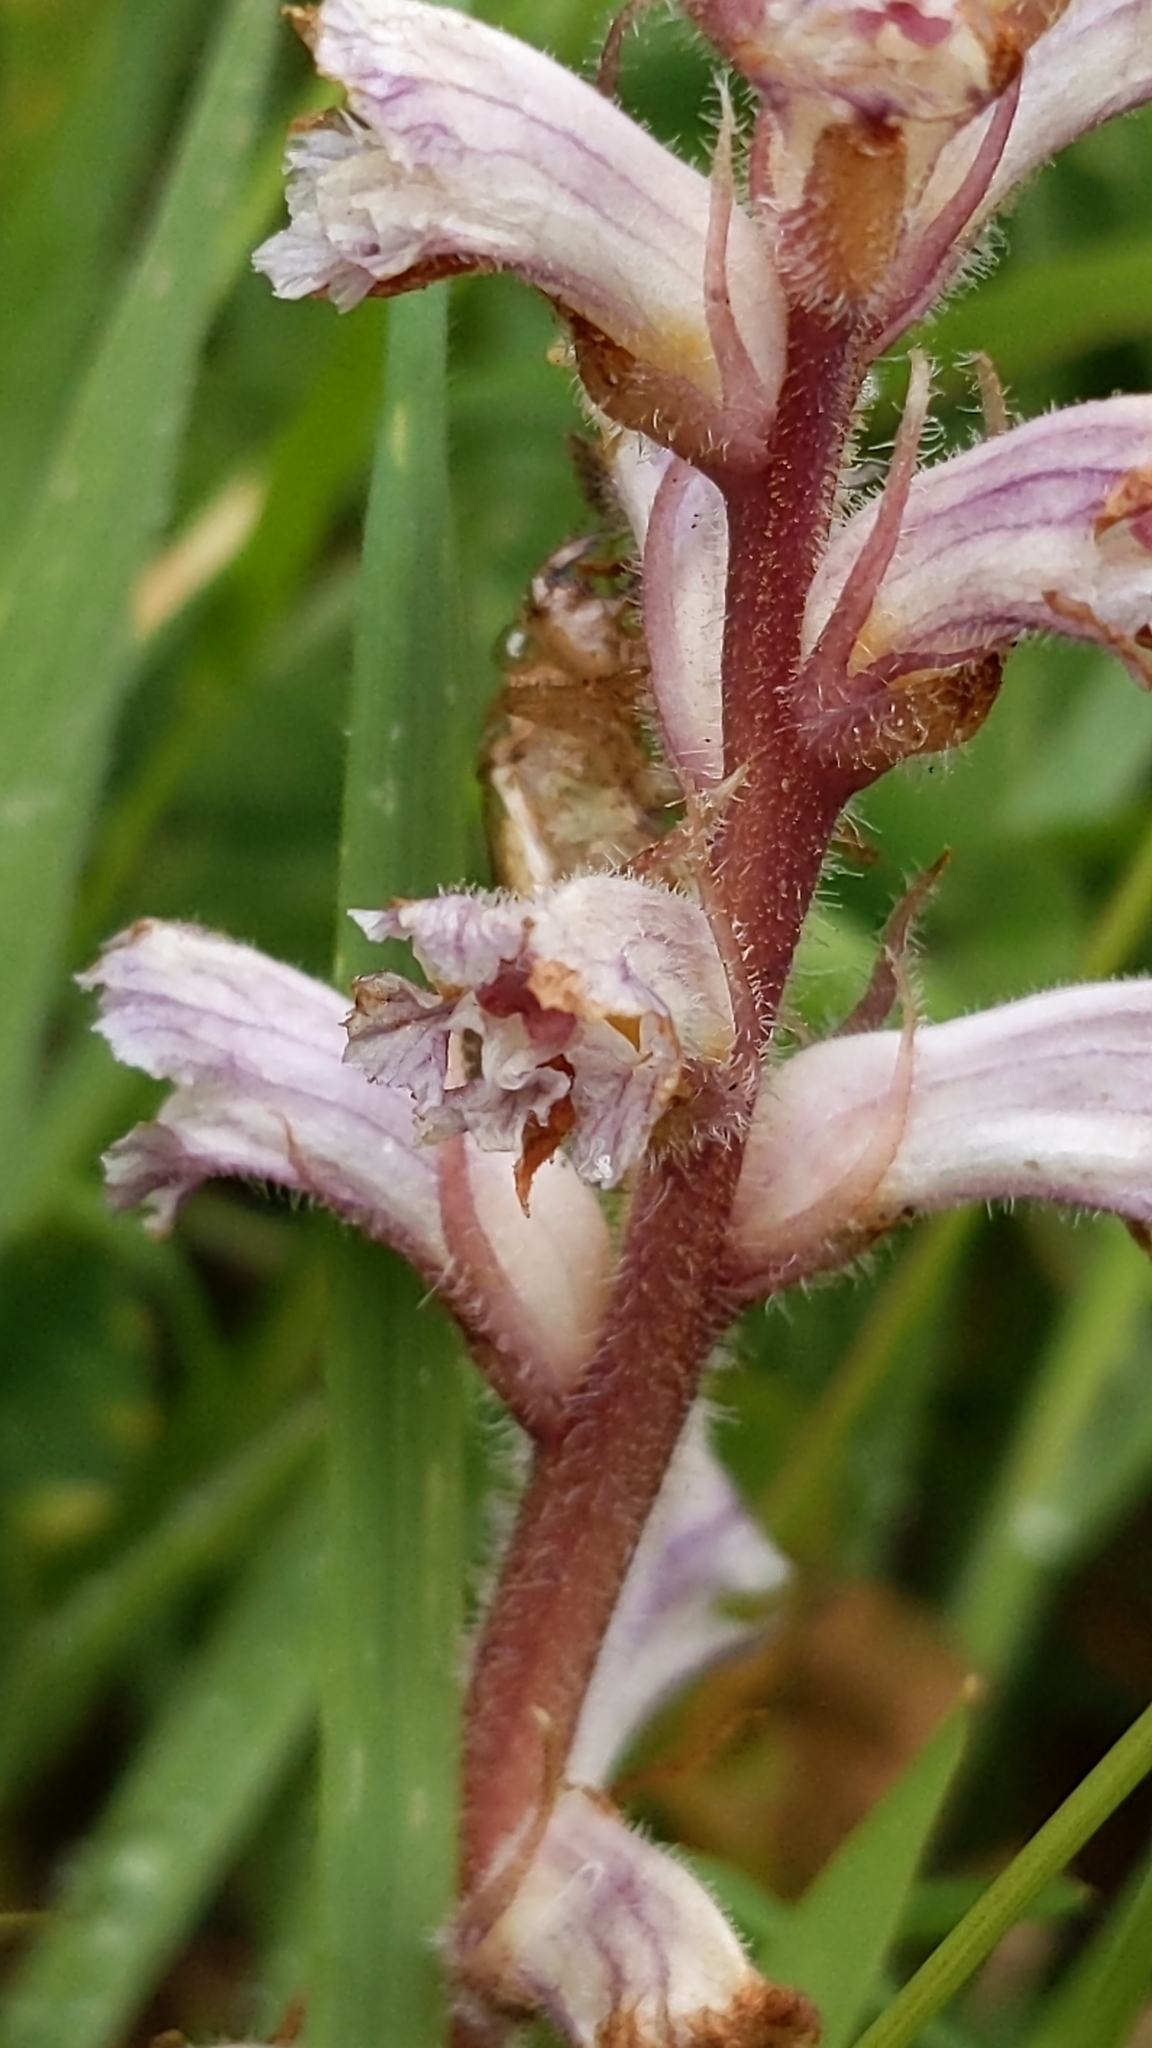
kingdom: Plantae
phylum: Tracheophyta
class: Magnoliopsida
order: Lamiales
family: Orobanchaceae
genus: Orobanche
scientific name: Orobanche minor
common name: Common broomrape
